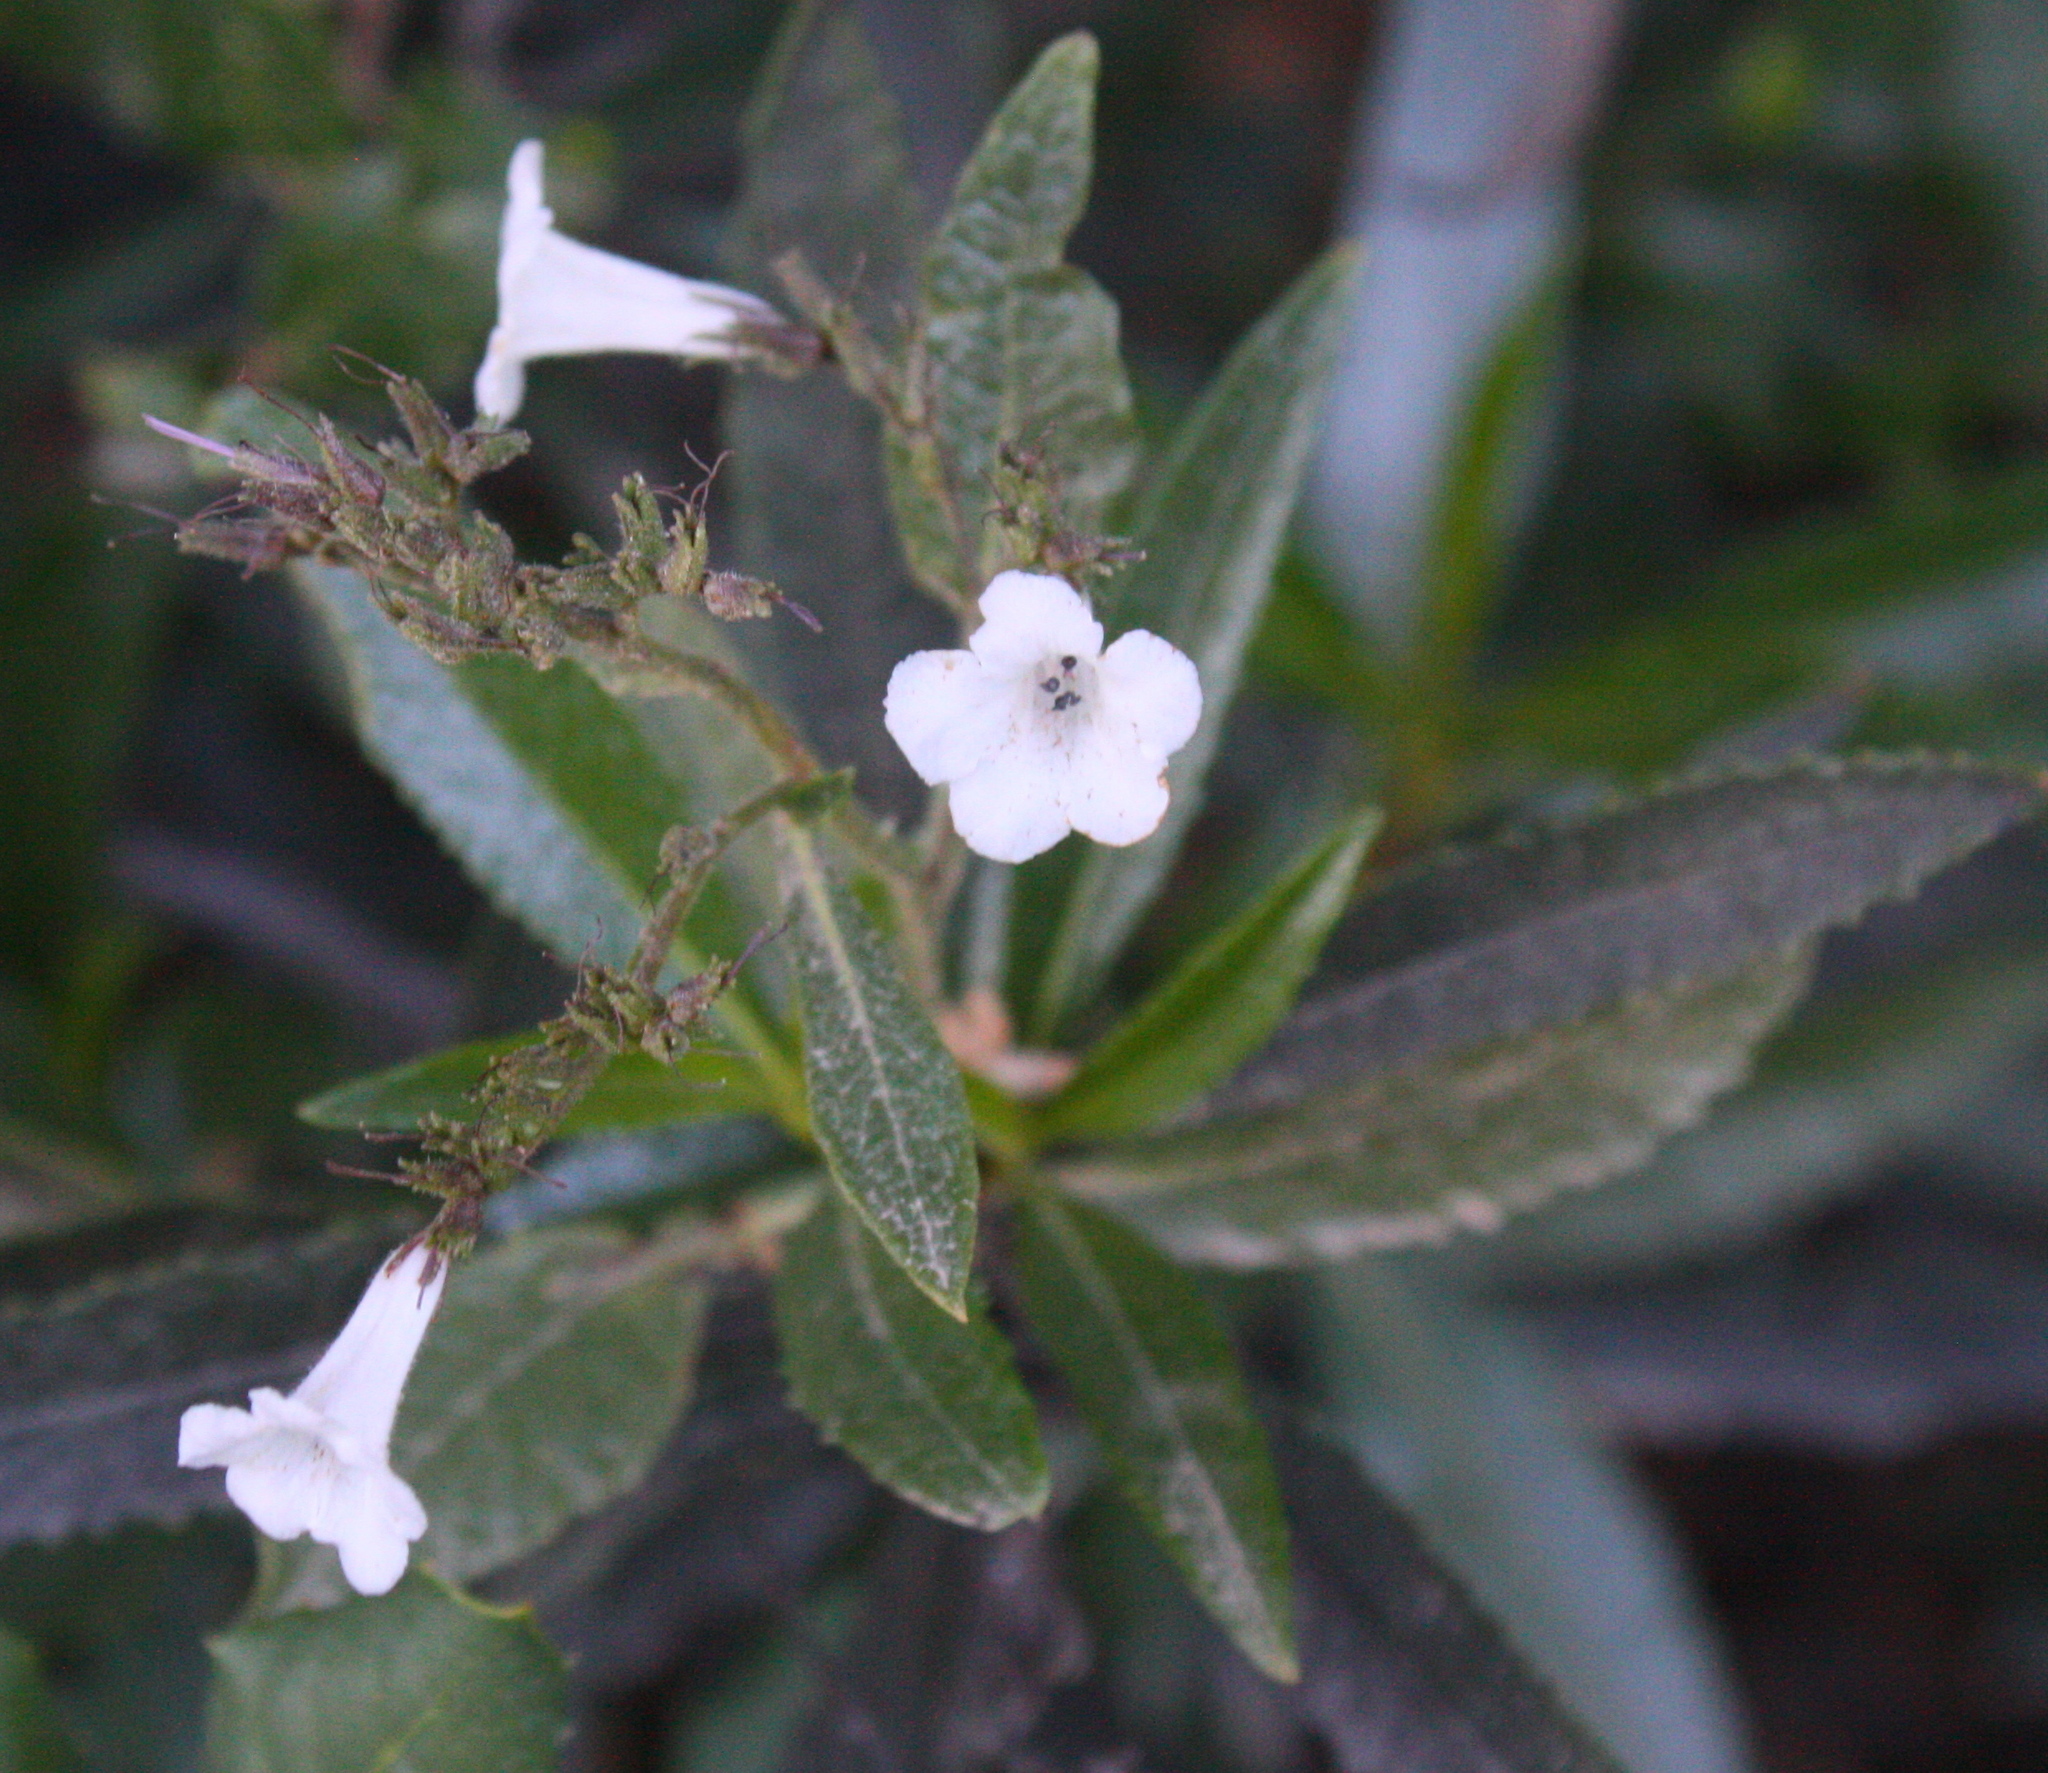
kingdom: Plantae
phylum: Tracheophyta
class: Magnoliopsida
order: Boraginales
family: Namaceae
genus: Eriodictyon
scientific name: Eriodictyon californicum
